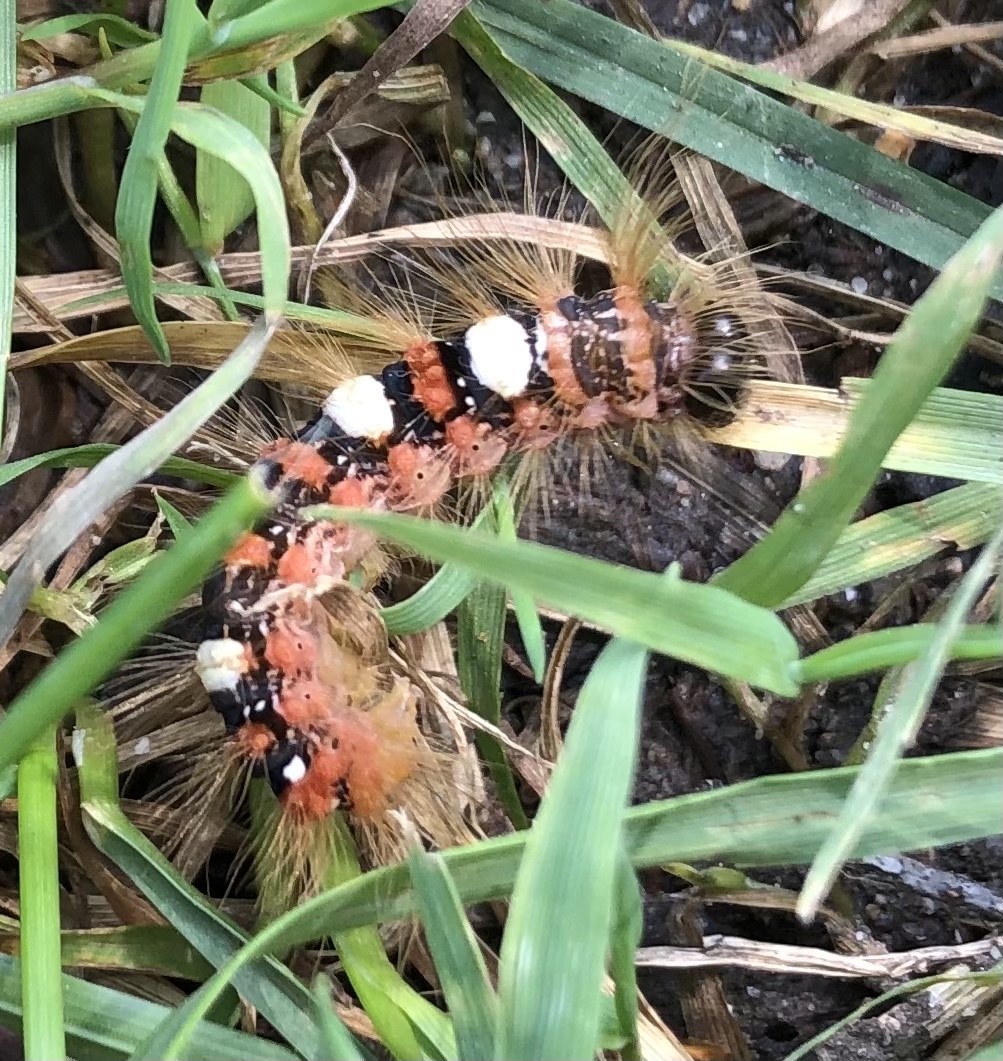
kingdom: Animalia
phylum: Arthropoda
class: Insecta
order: Lepidoptera
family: Noctuidae
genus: Moma
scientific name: Moma alpium
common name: Scarce merveille du jour
